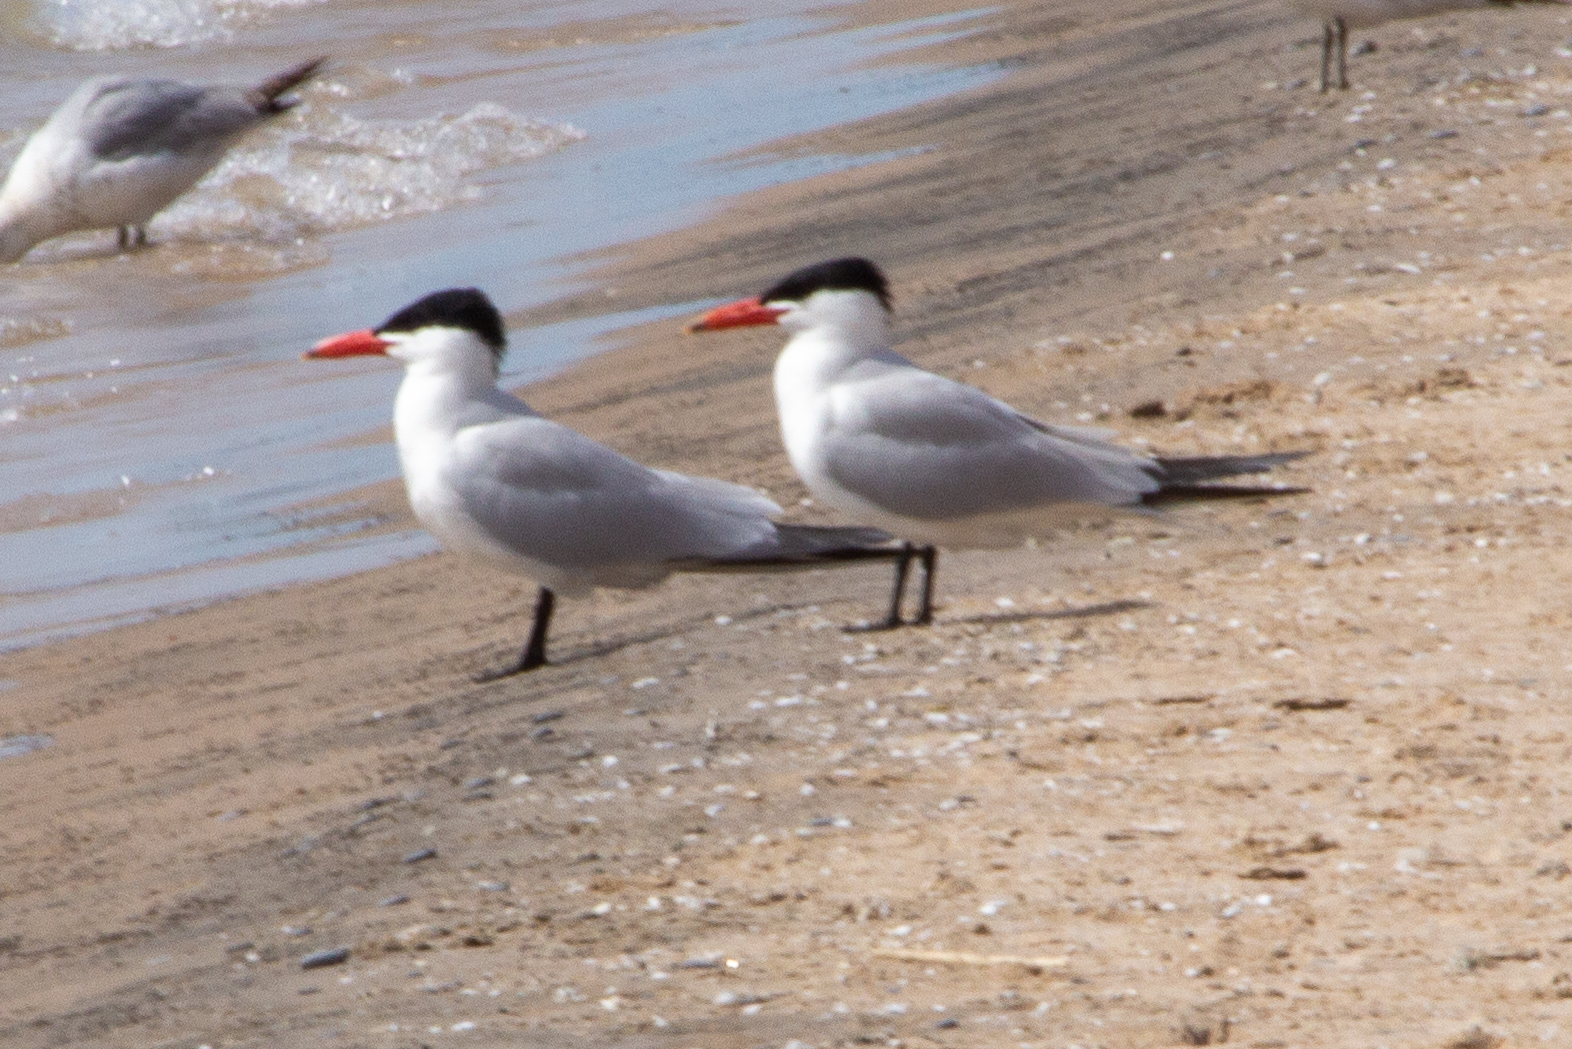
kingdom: Animalia
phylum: Chordata
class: Aves
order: Charadriiformes
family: Laridae
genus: Hydroprogne
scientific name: Hydroprogne caspia
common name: Caspian tern
